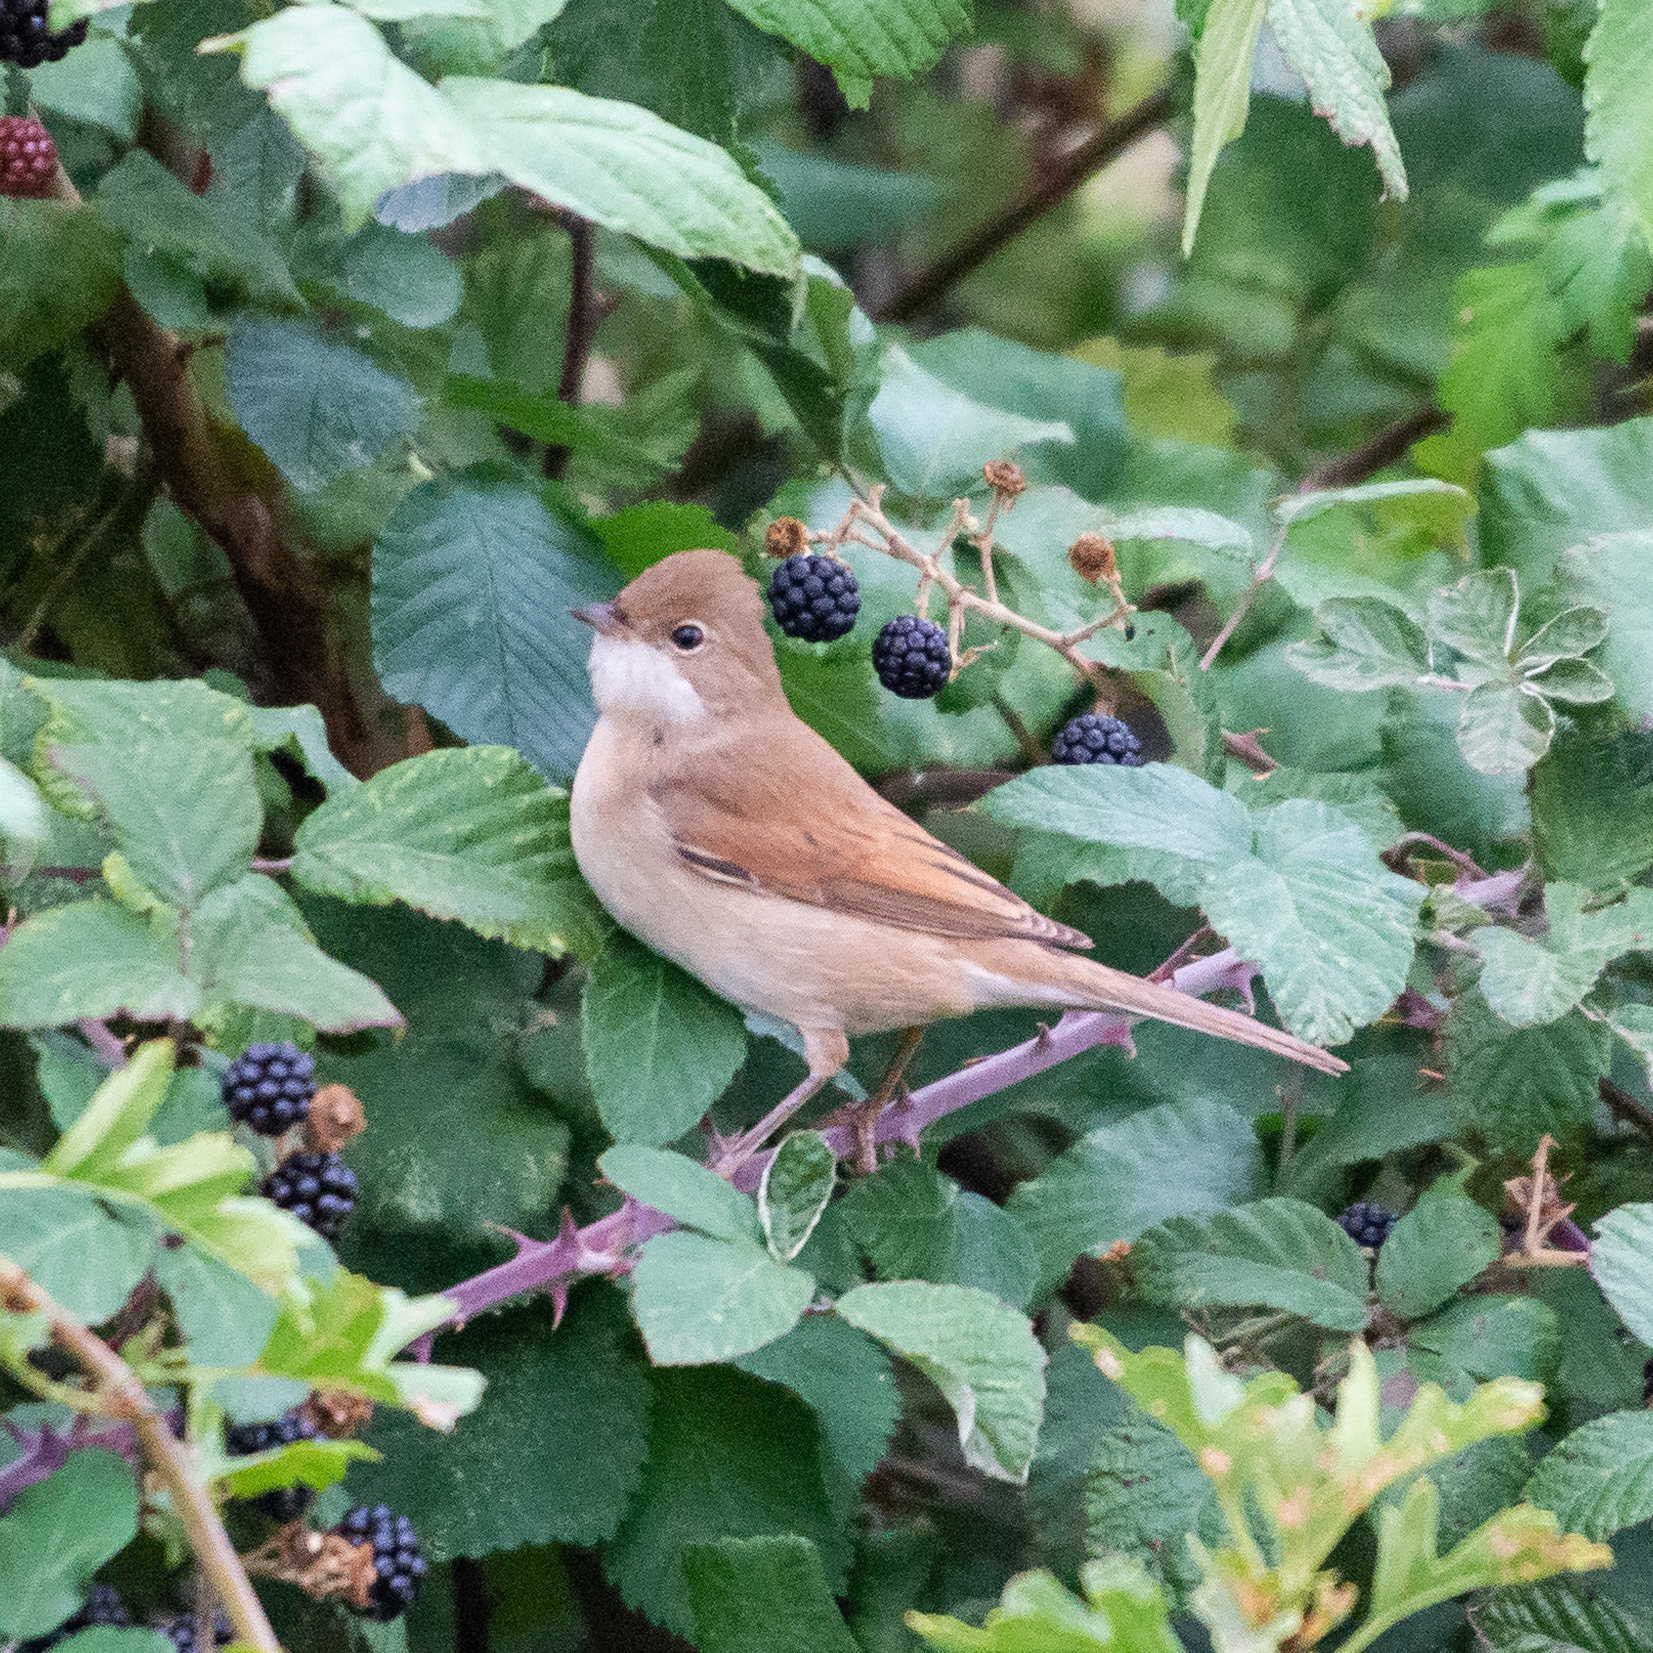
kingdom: Animalia
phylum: Chordata
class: Aves
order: Passeriformes
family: Sylviidae
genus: Sylvia
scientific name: Sylvia communis
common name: Common whitethroat
